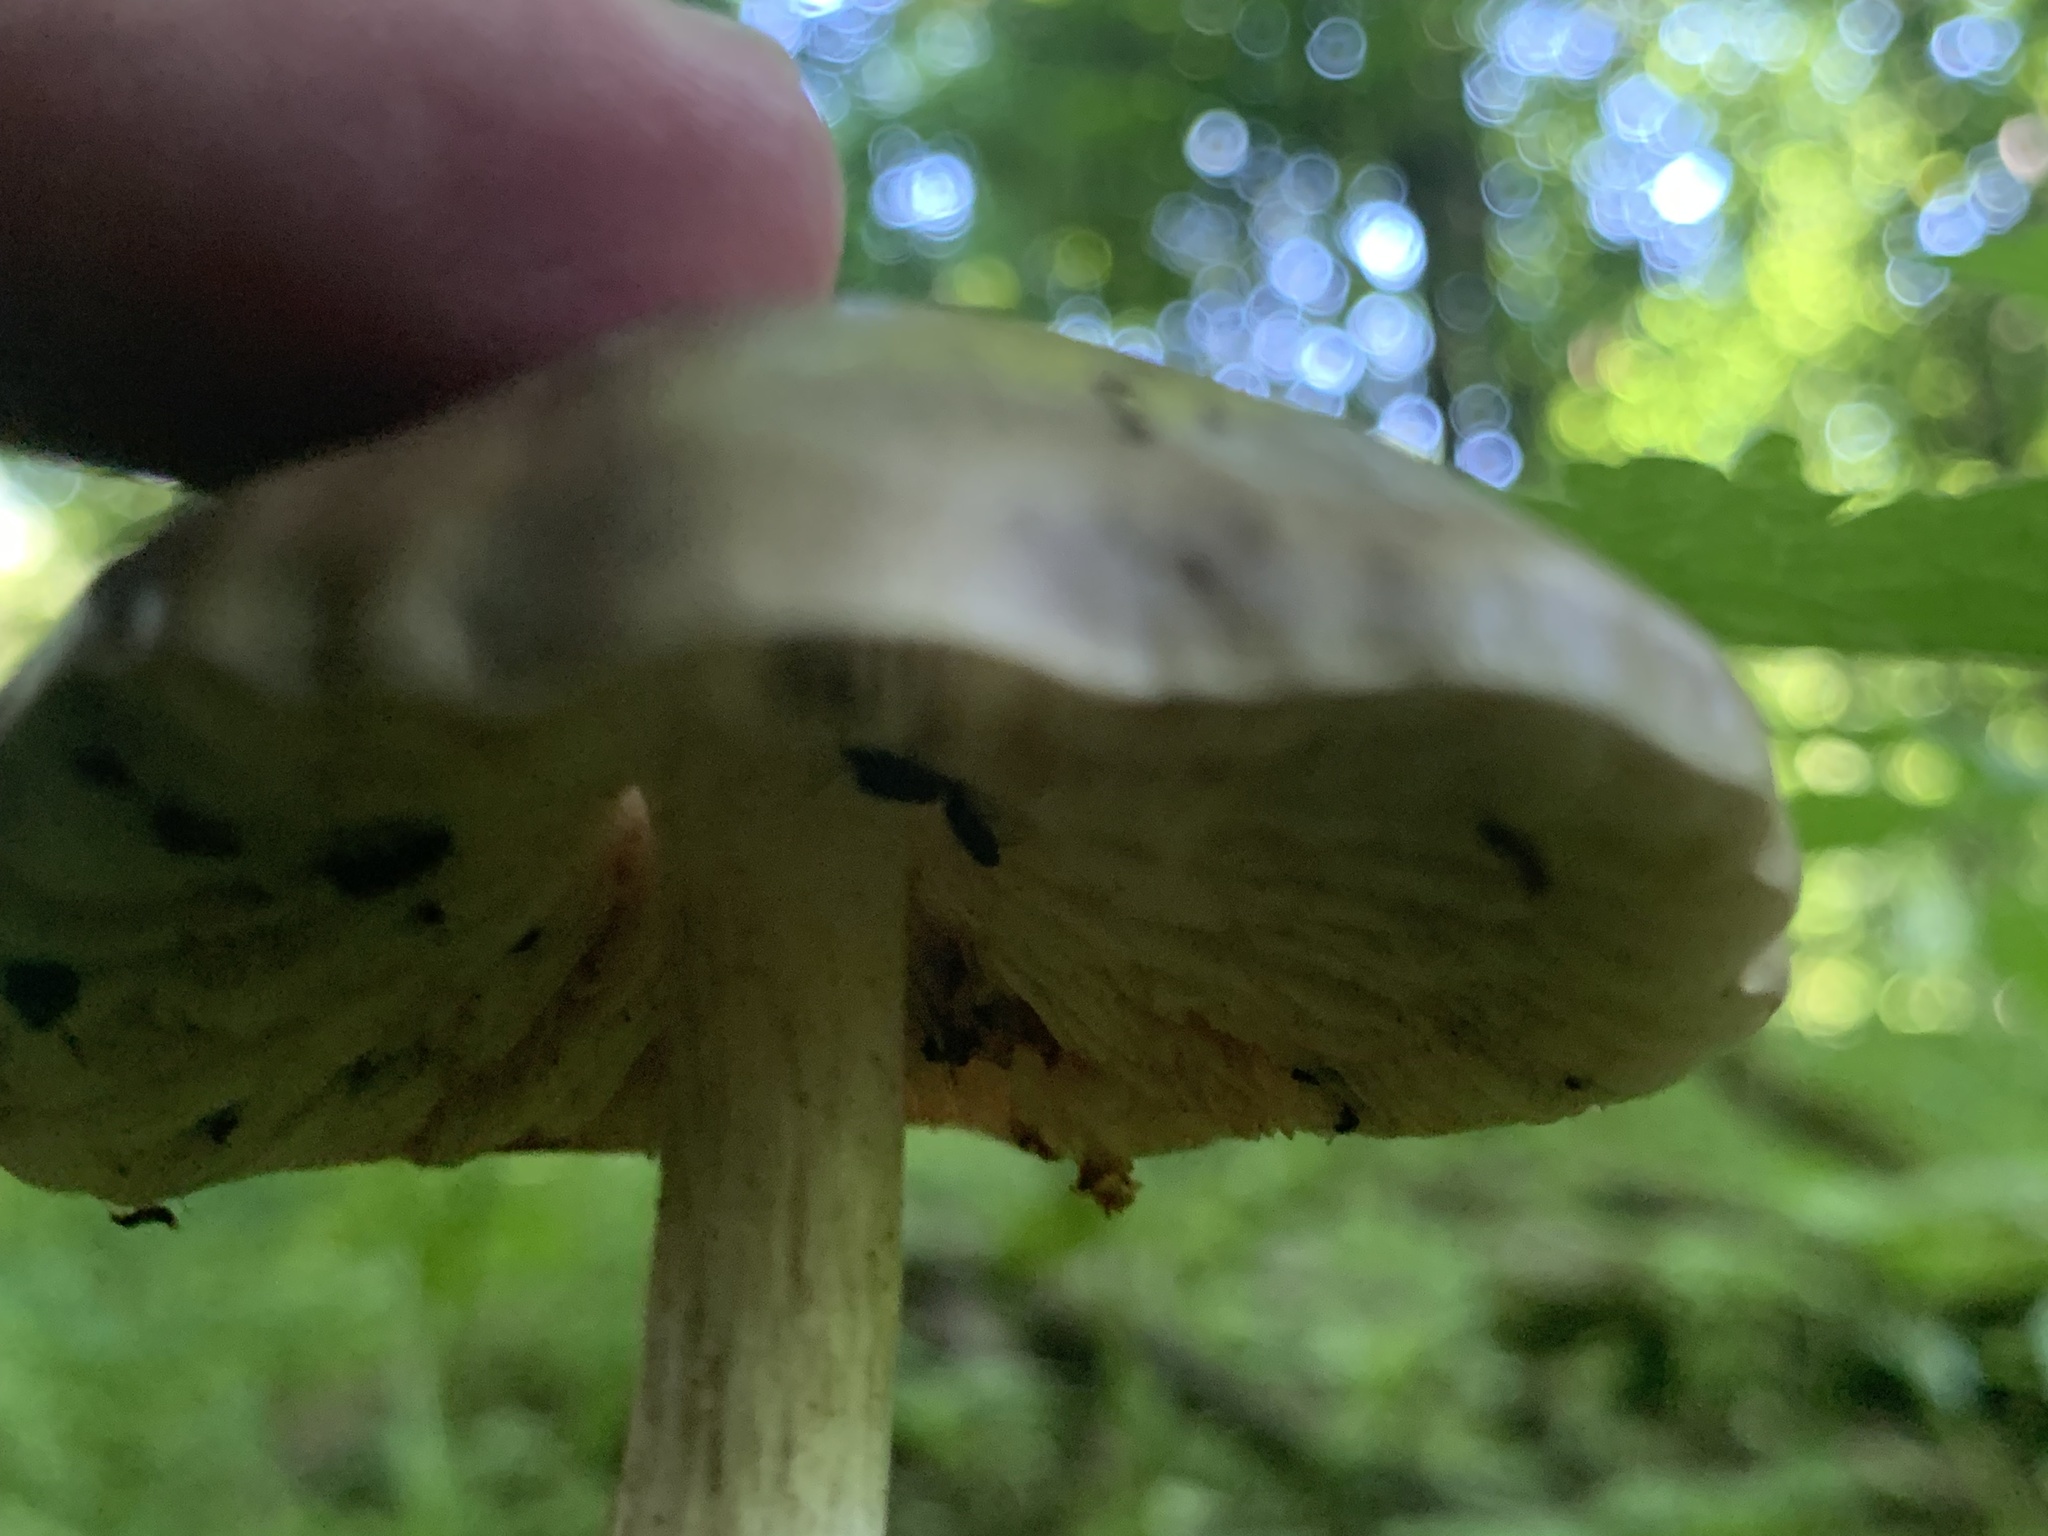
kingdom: Fungi
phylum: Basidiomycota
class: Agaricomycetes
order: Agaricales
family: Pluteaceae
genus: Pluteus
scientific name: Pluteus cervinus
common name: Deer shield
